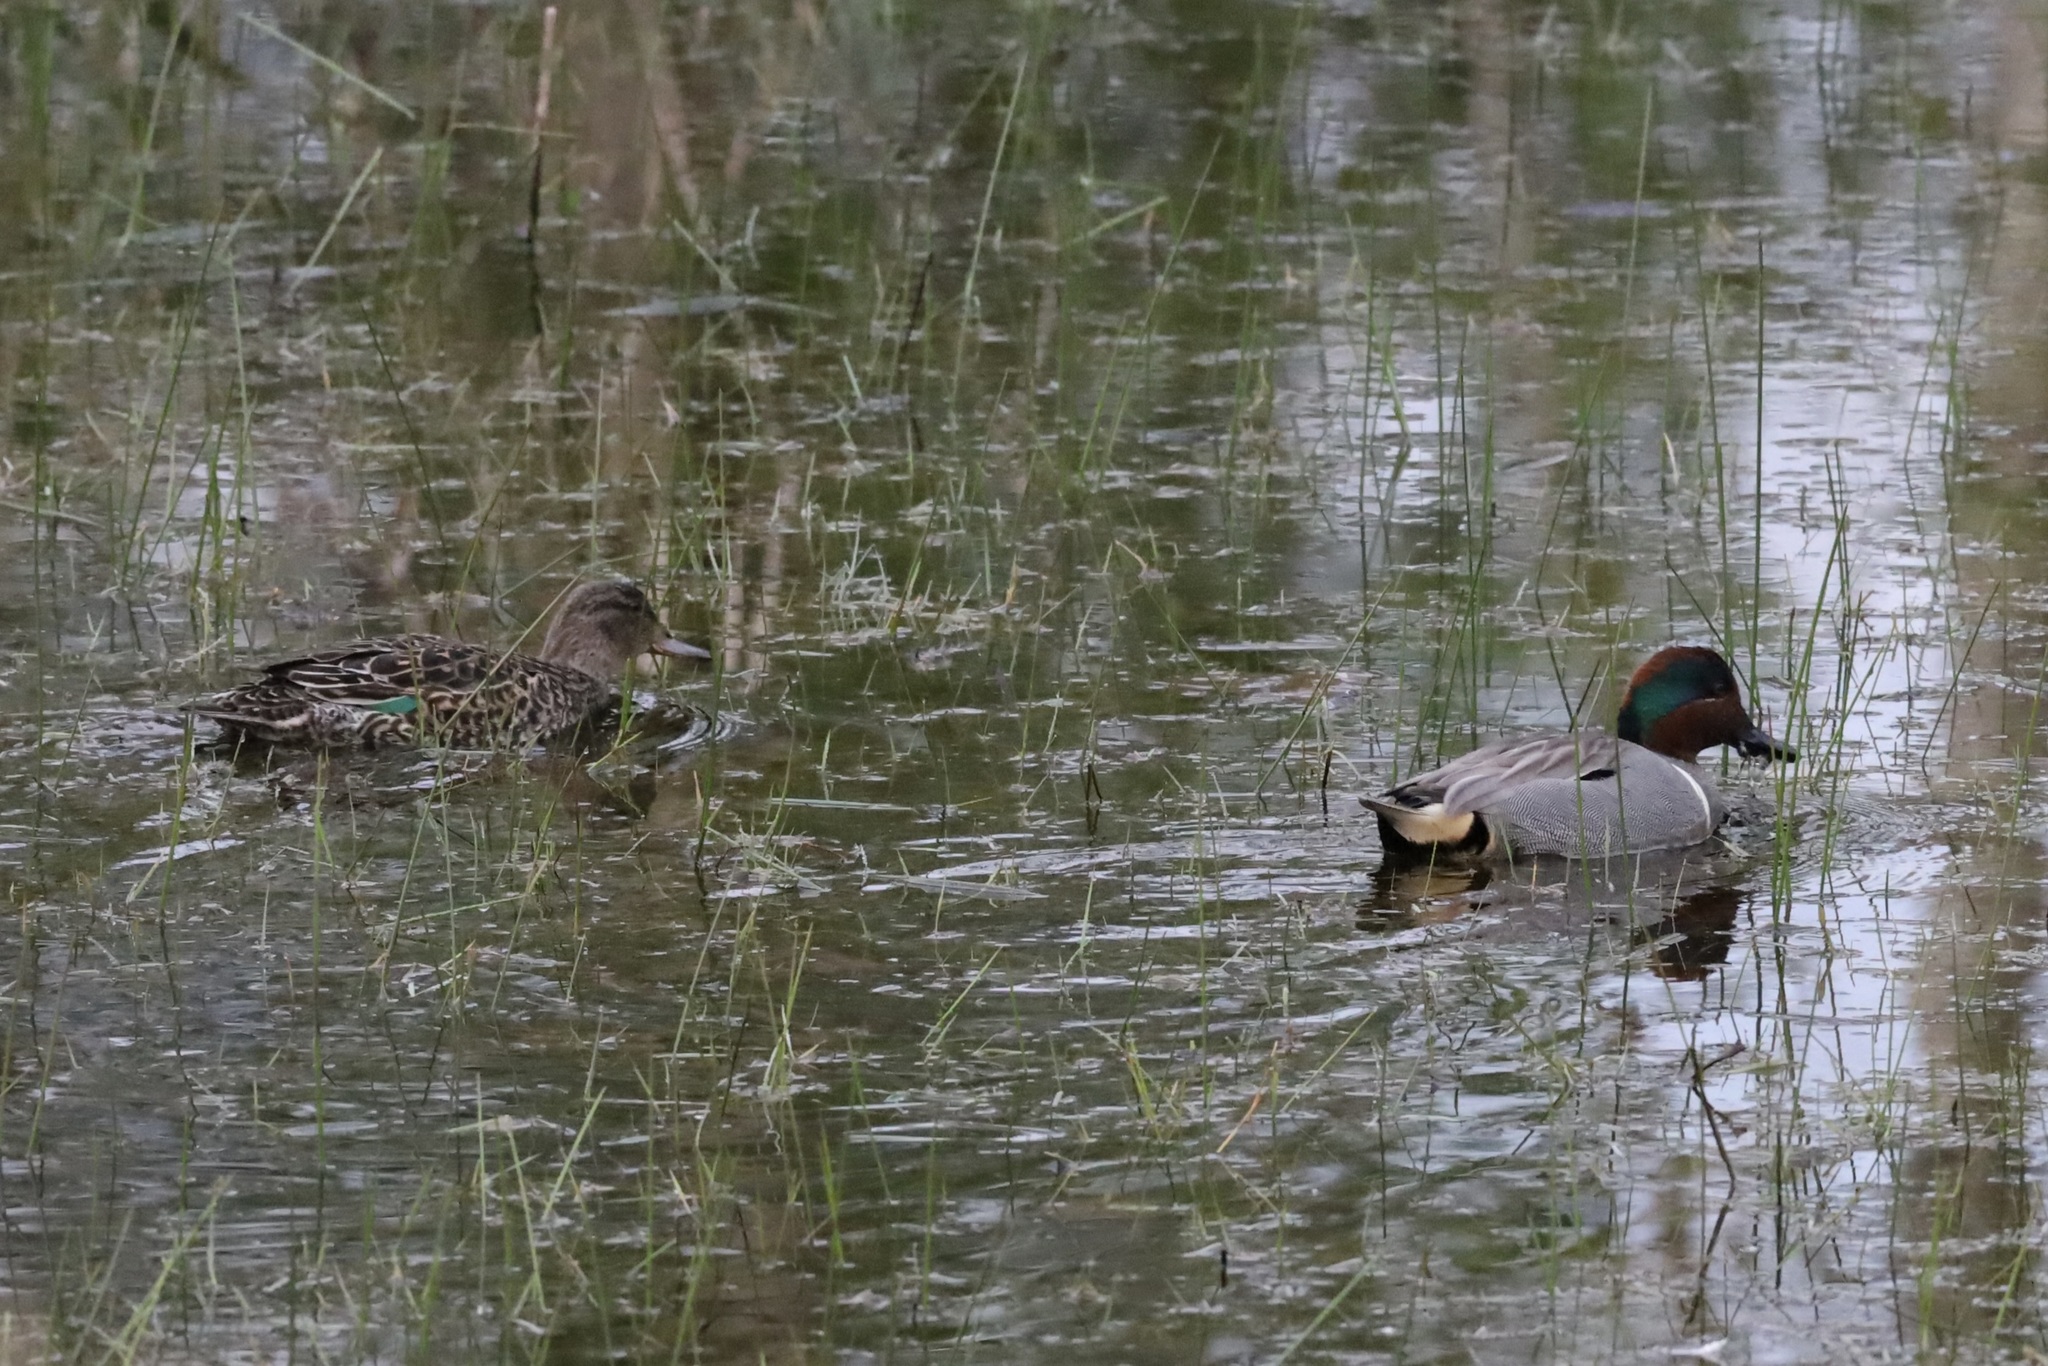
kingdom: Animalia
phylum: Chordata
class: Aves
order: Anseriformes
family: Anatidae
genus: Anas
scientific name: Anas crecca
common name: Eurasian teal
